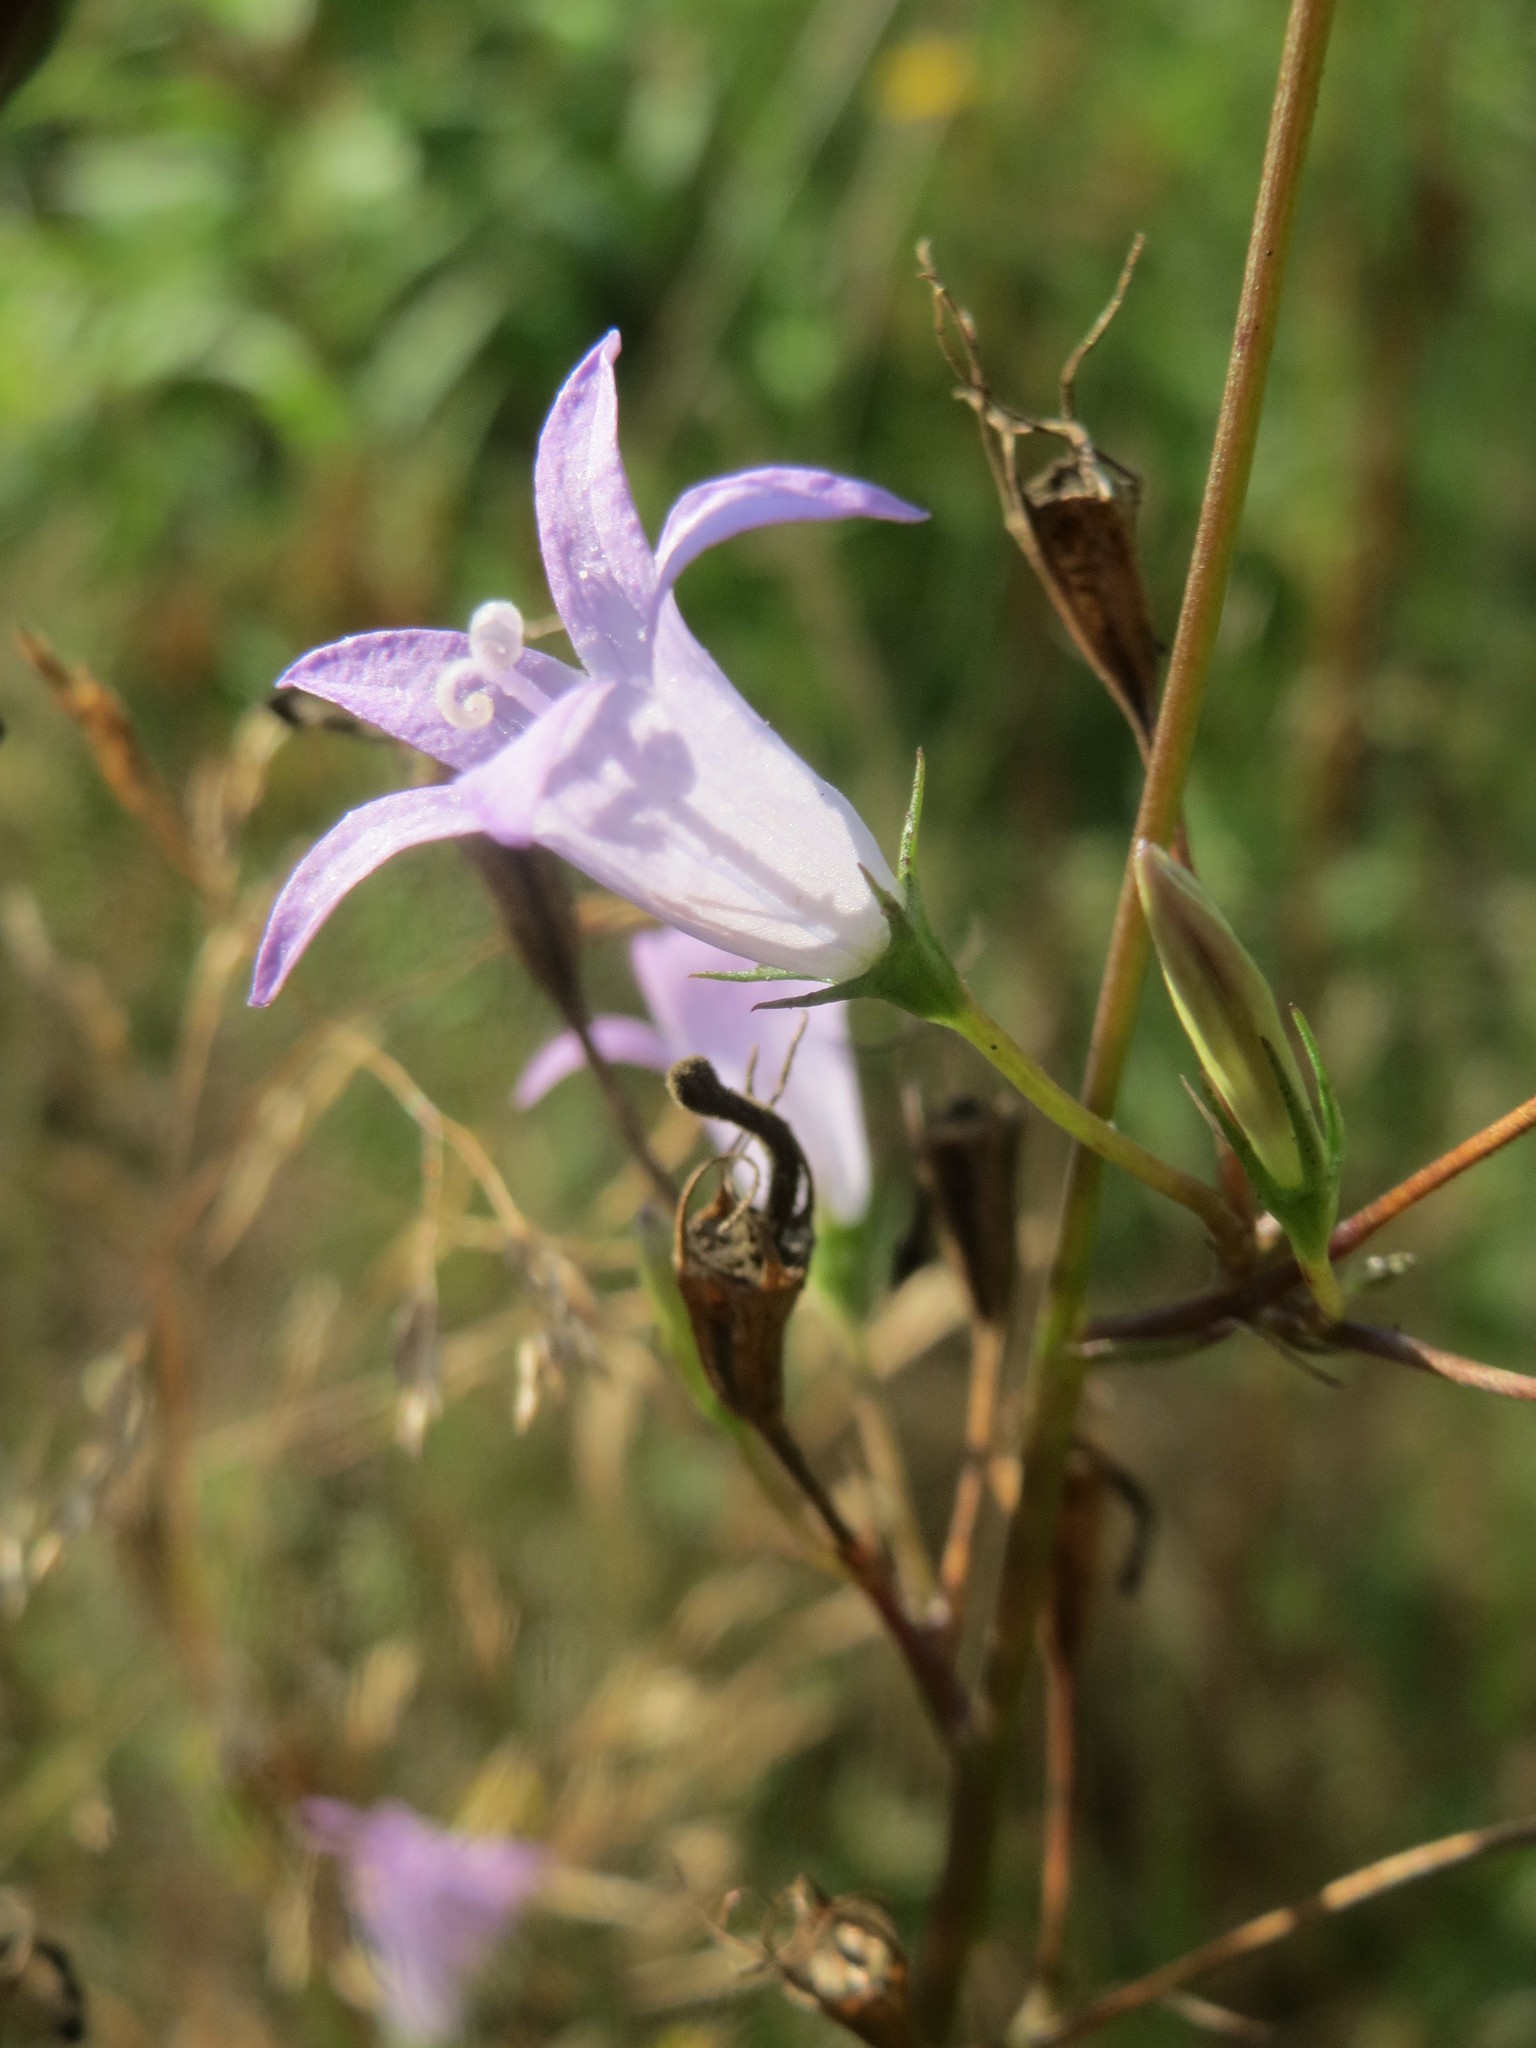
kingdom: Plantae
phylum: Tracheophyta
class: Magnoliopsida
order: Asterales
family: Campanulaceae
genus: Campanula
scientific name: Campanula rapunculus
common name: Rampion bellflower
